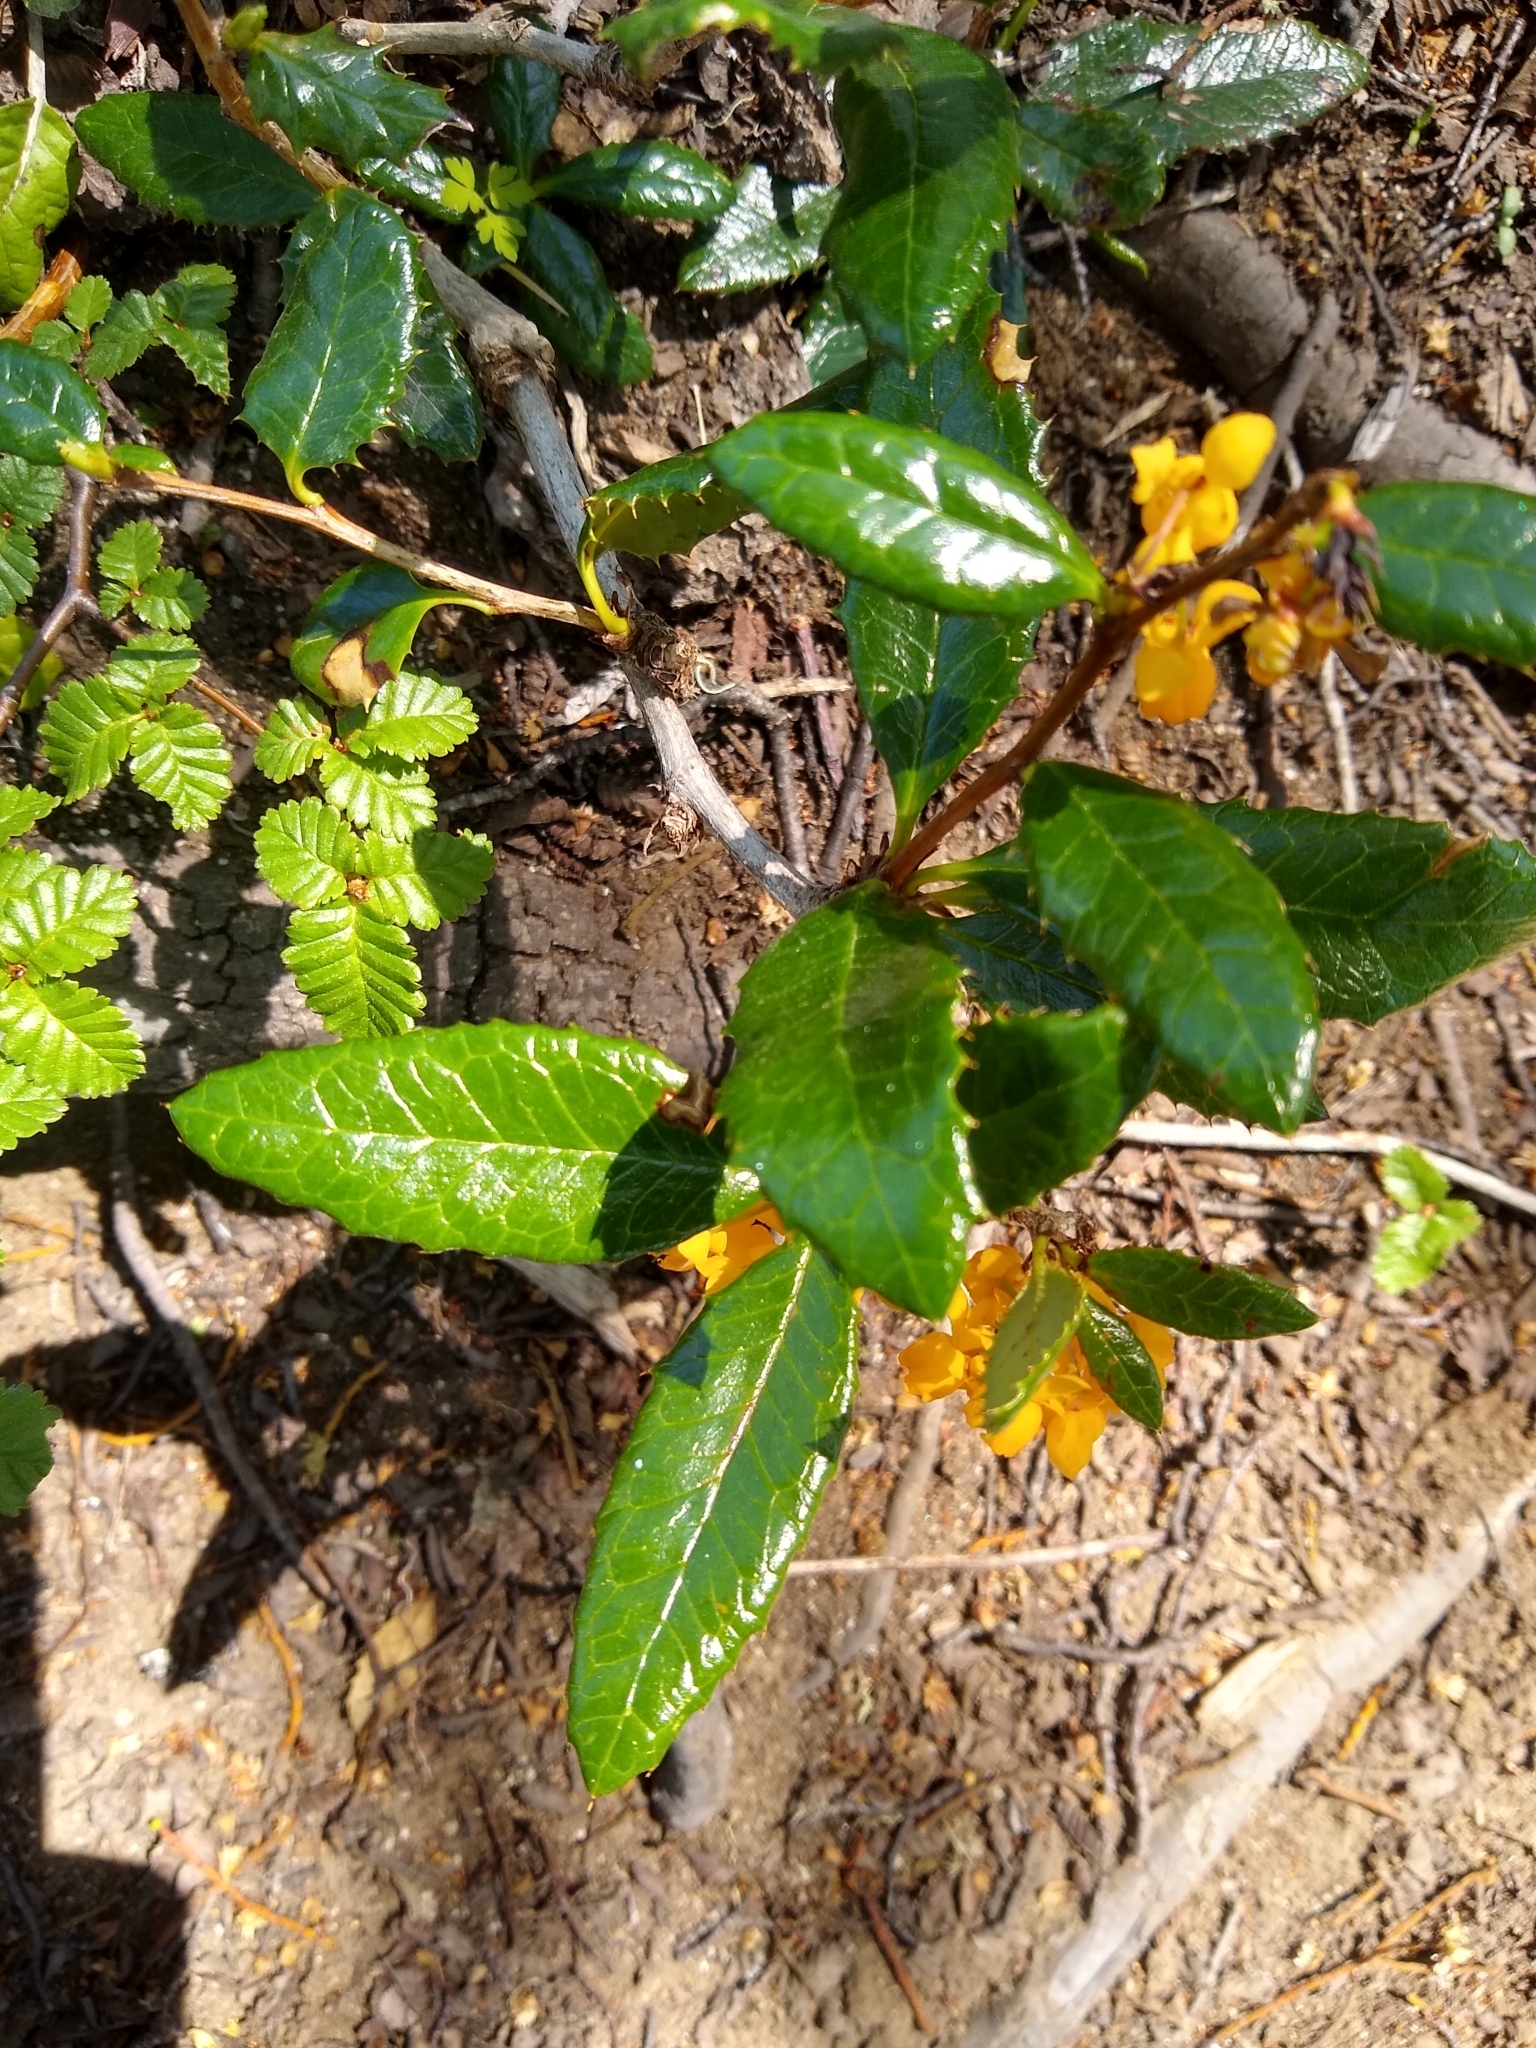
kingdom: Plantae
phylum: Tracheophyta
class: Magnoliopsida
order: Ranunculales
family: Berberidaceae
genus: Berberis
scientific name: Berberis pseudoilicifolia
